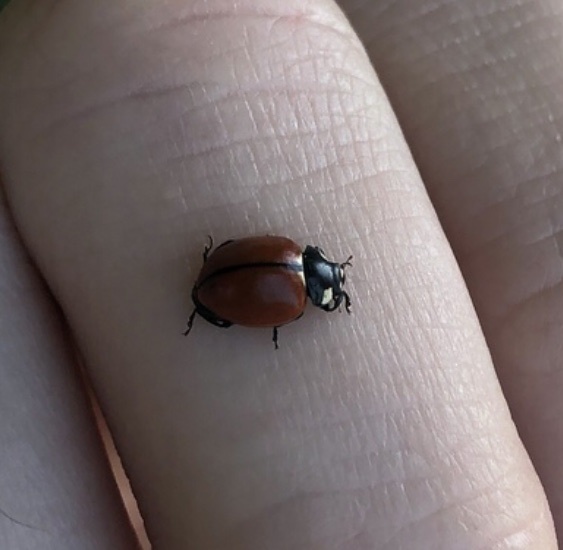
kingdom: Animalia
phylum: Arthropoda
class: Insecta
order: Coleoptera
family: Coccinellidae
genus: Coccinella
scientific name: Coccinella californica
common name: Lady beetle
